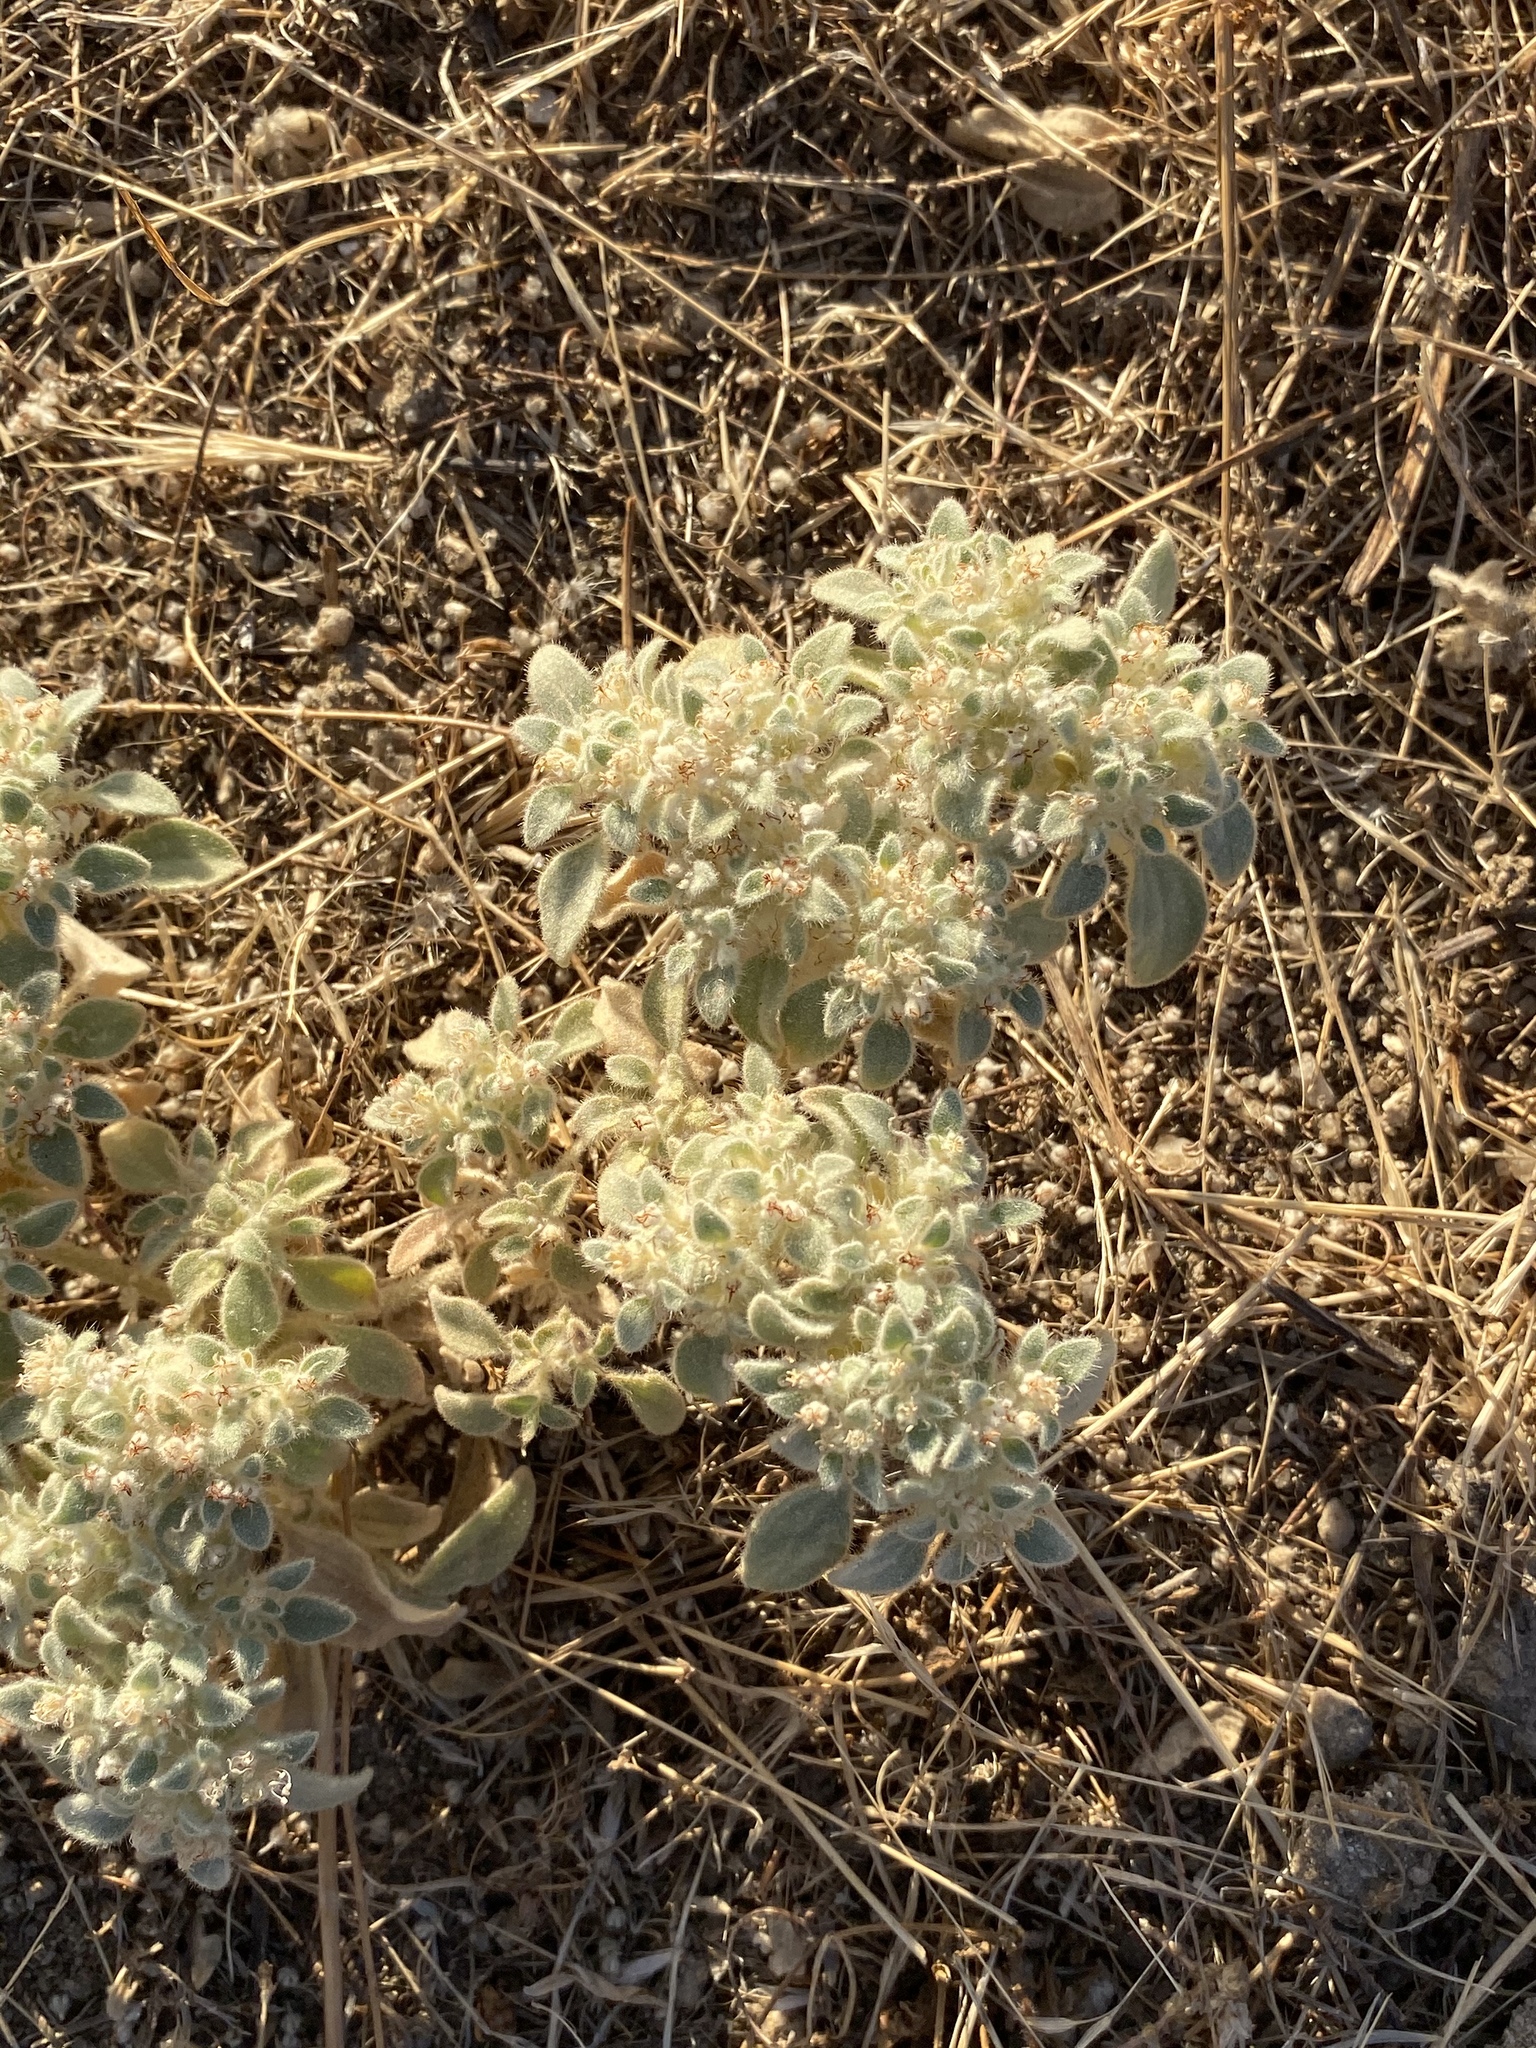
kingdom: Plantae
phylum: Tracheophyta
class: Magnoliopsida
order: Malpighiales
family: Euphorbiaceae
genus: Croton
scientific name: Croton setiger
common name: Dove weed
